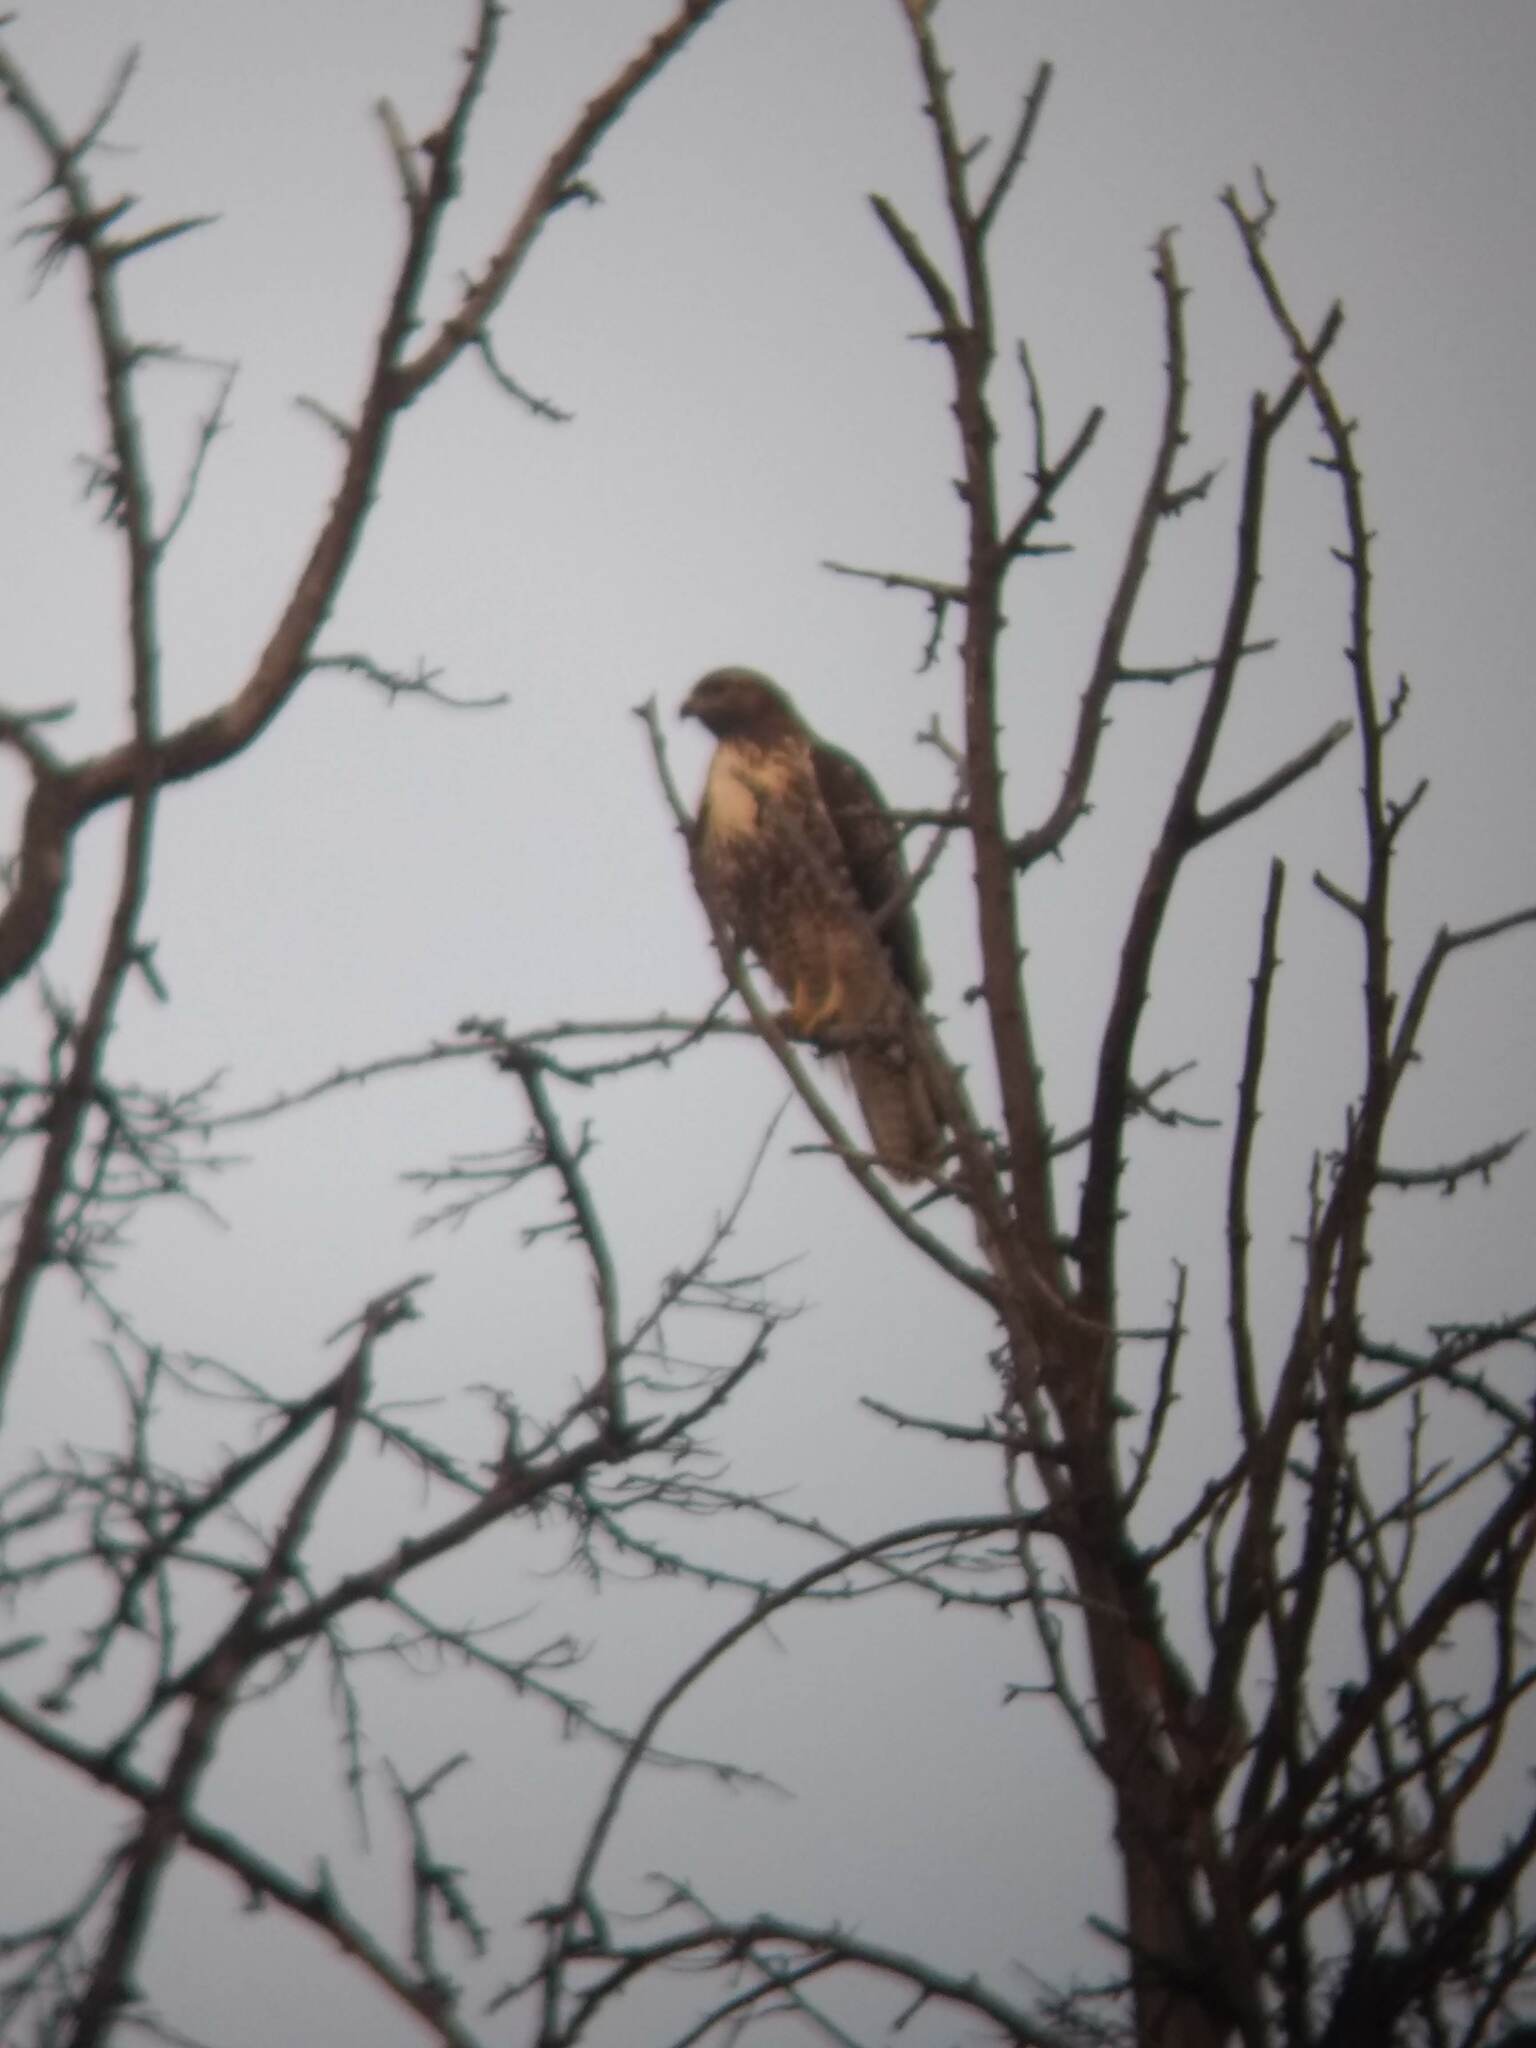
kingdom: Animalia
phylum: Chordata
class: Aves
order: Accipitriformes
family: Accipitridae
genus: Buteo
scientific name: Buteo jamaicensis
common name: Red-tailed hawk
